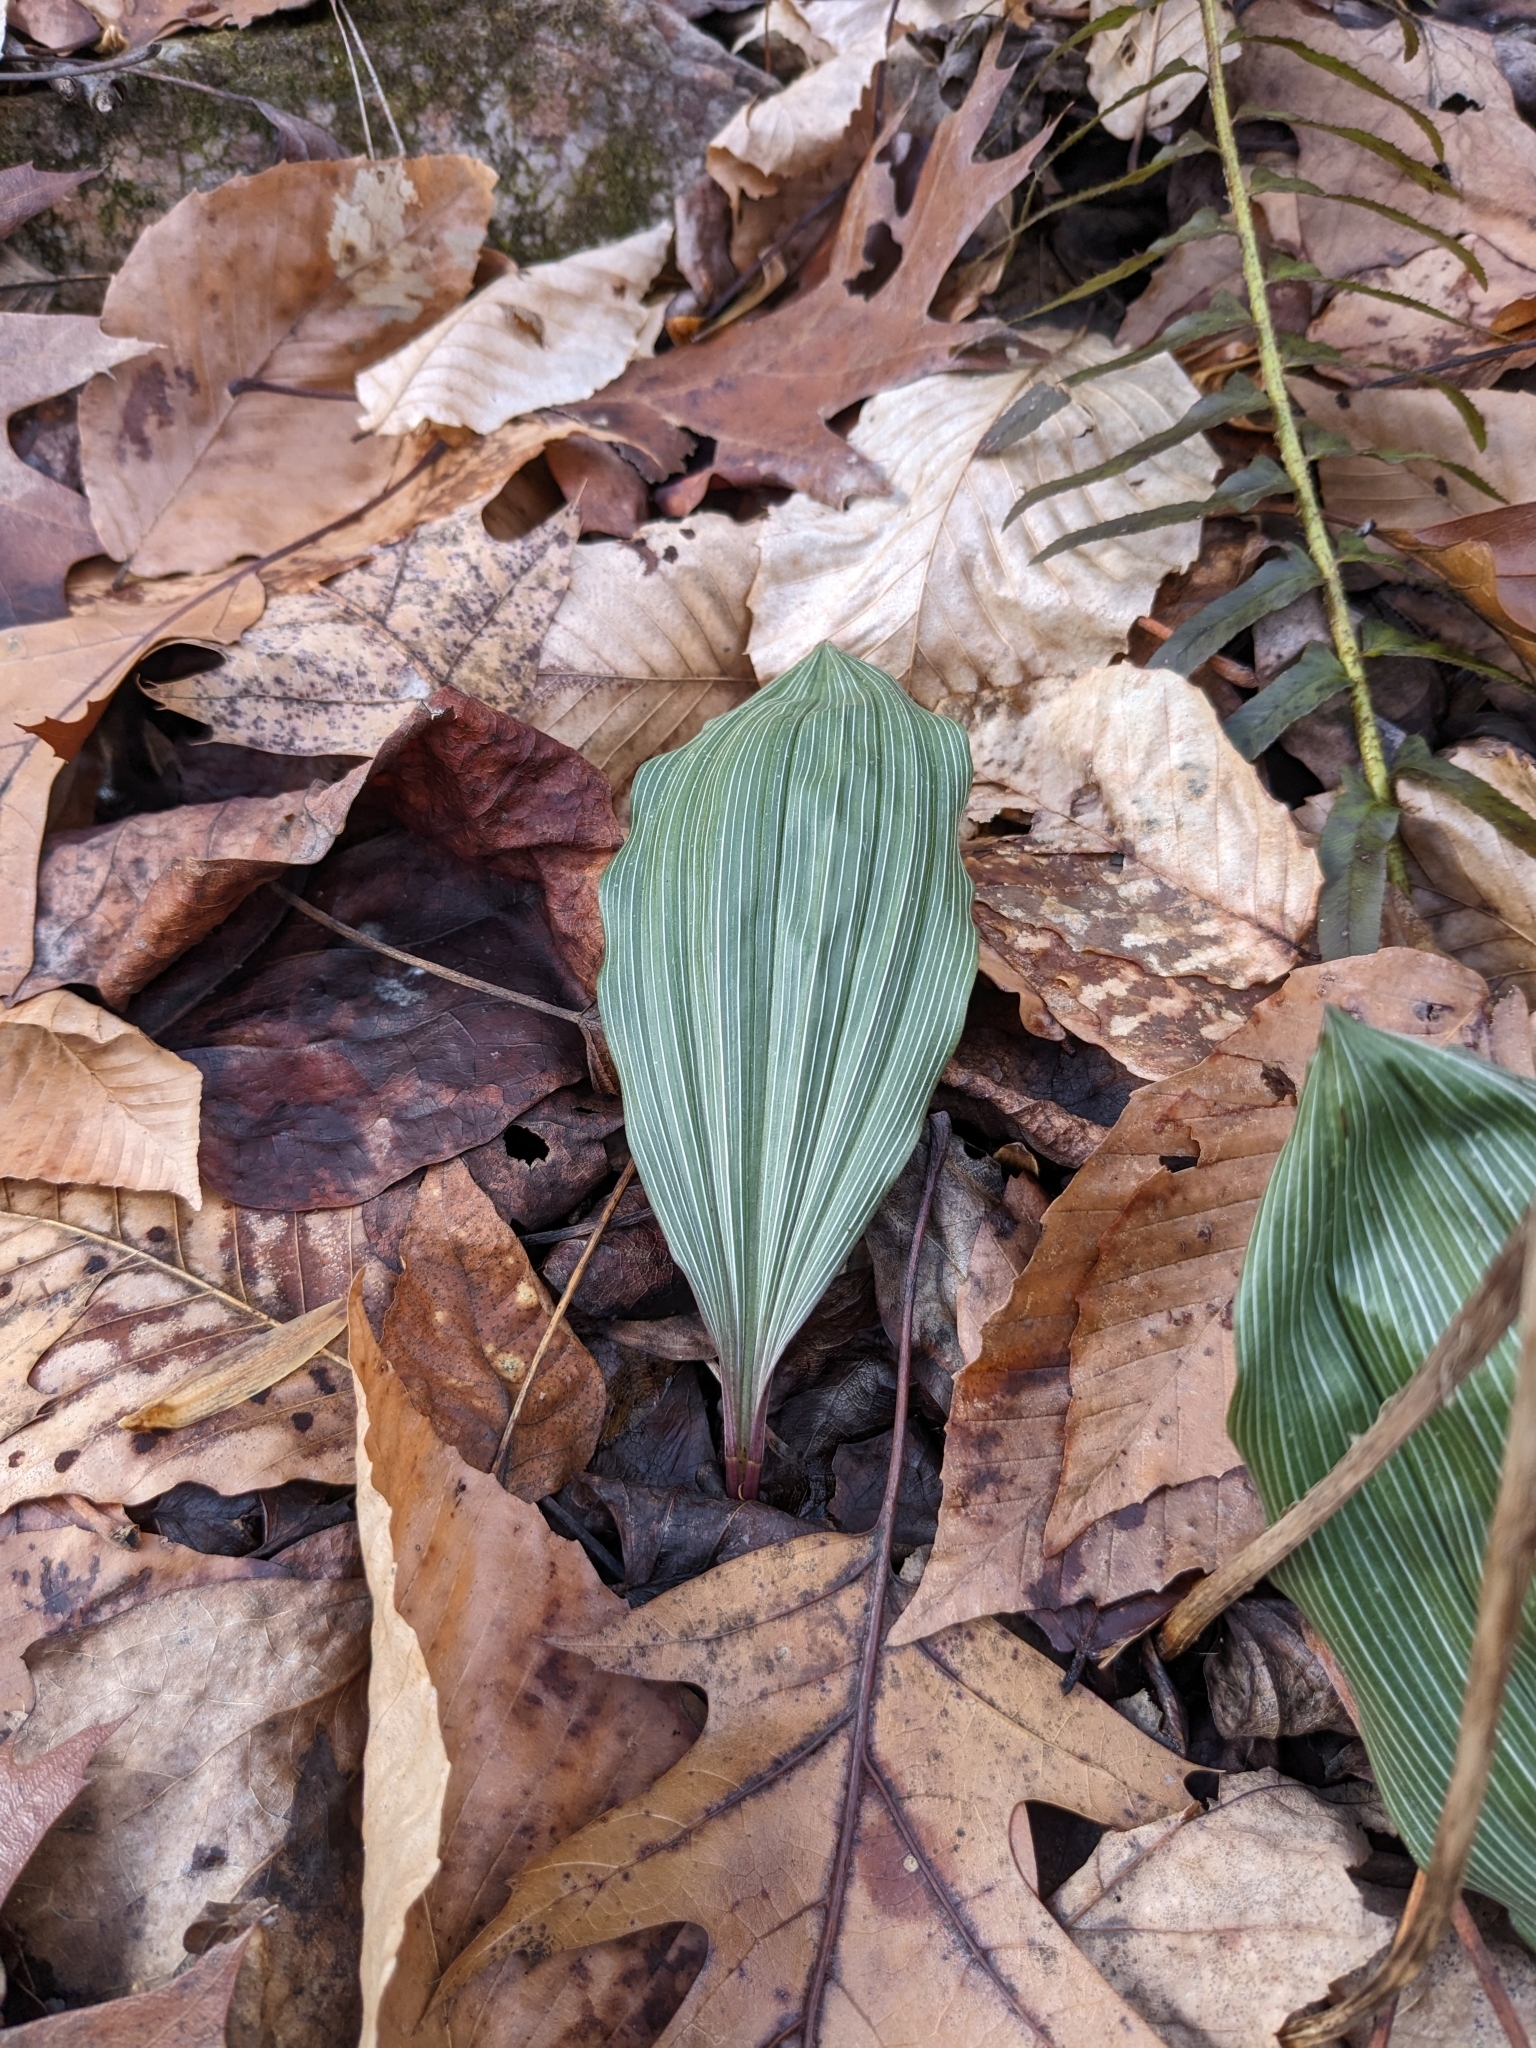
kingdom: Plantae
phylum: Tracheophyta
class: Liliopsida
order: Asparagales
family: Orchidaceae
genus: Aplectrum
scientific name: Aplectrum hyemale
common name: Adam-and-eve
